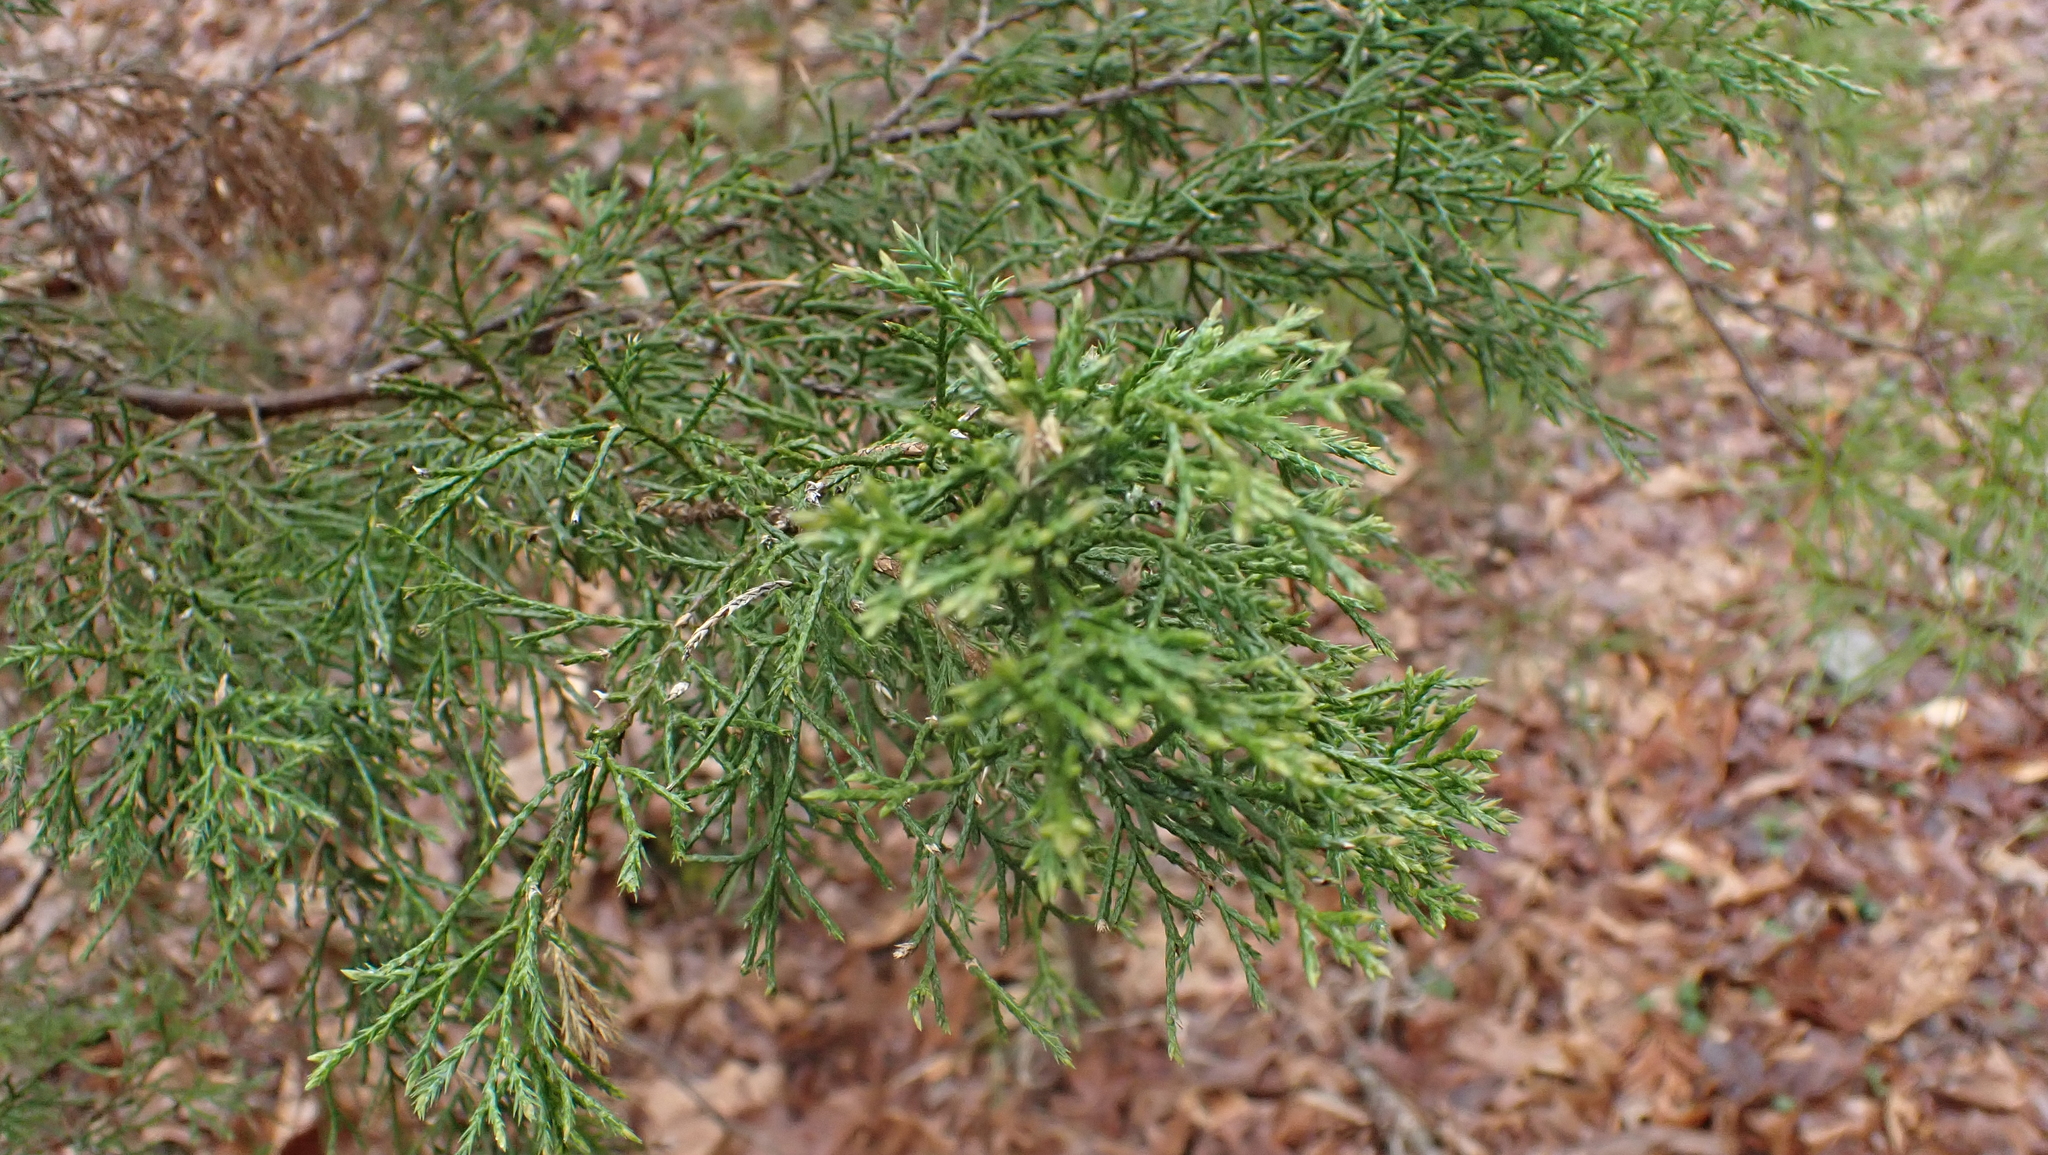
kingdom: Plantae
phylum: Tracheophyta
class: Pinopsida
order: Pinales
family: Cupressaceae
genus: Juniperus
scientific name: Juniperus virginiana
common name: Red juniper
